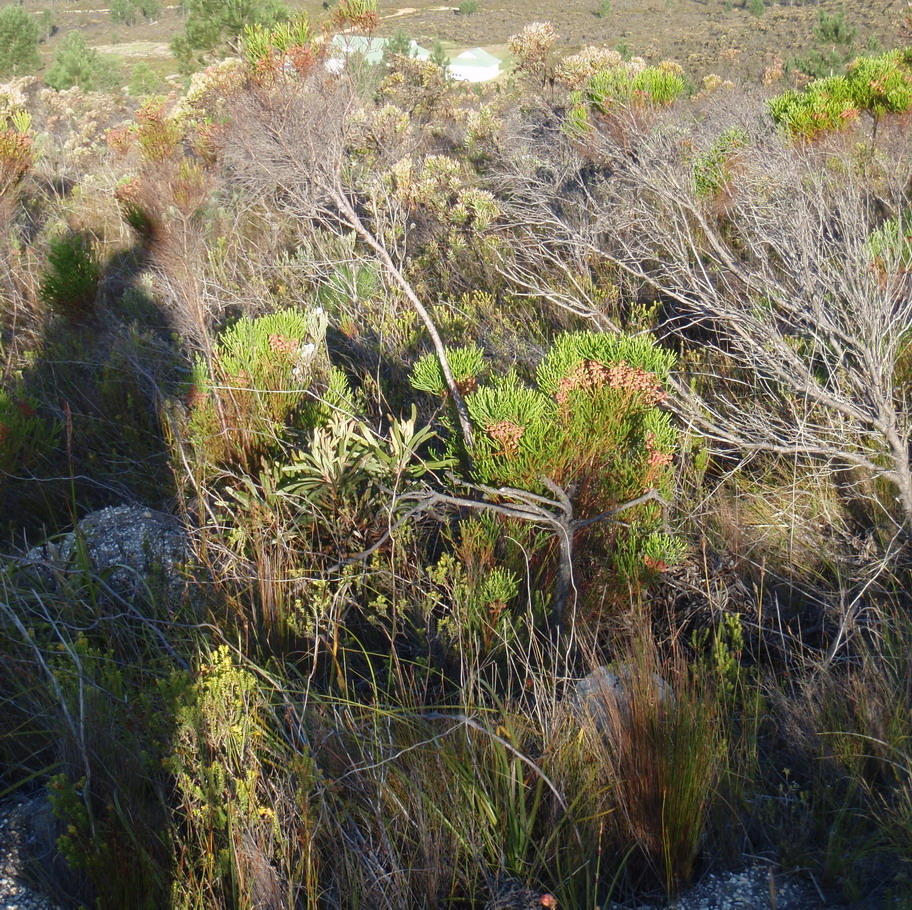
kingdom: Plantae
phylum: Tracheophyta
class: Magnoliopsida
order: Bruniales
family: Bruniaceae
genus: Berzelia
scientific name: Berzelia lanuginosa
